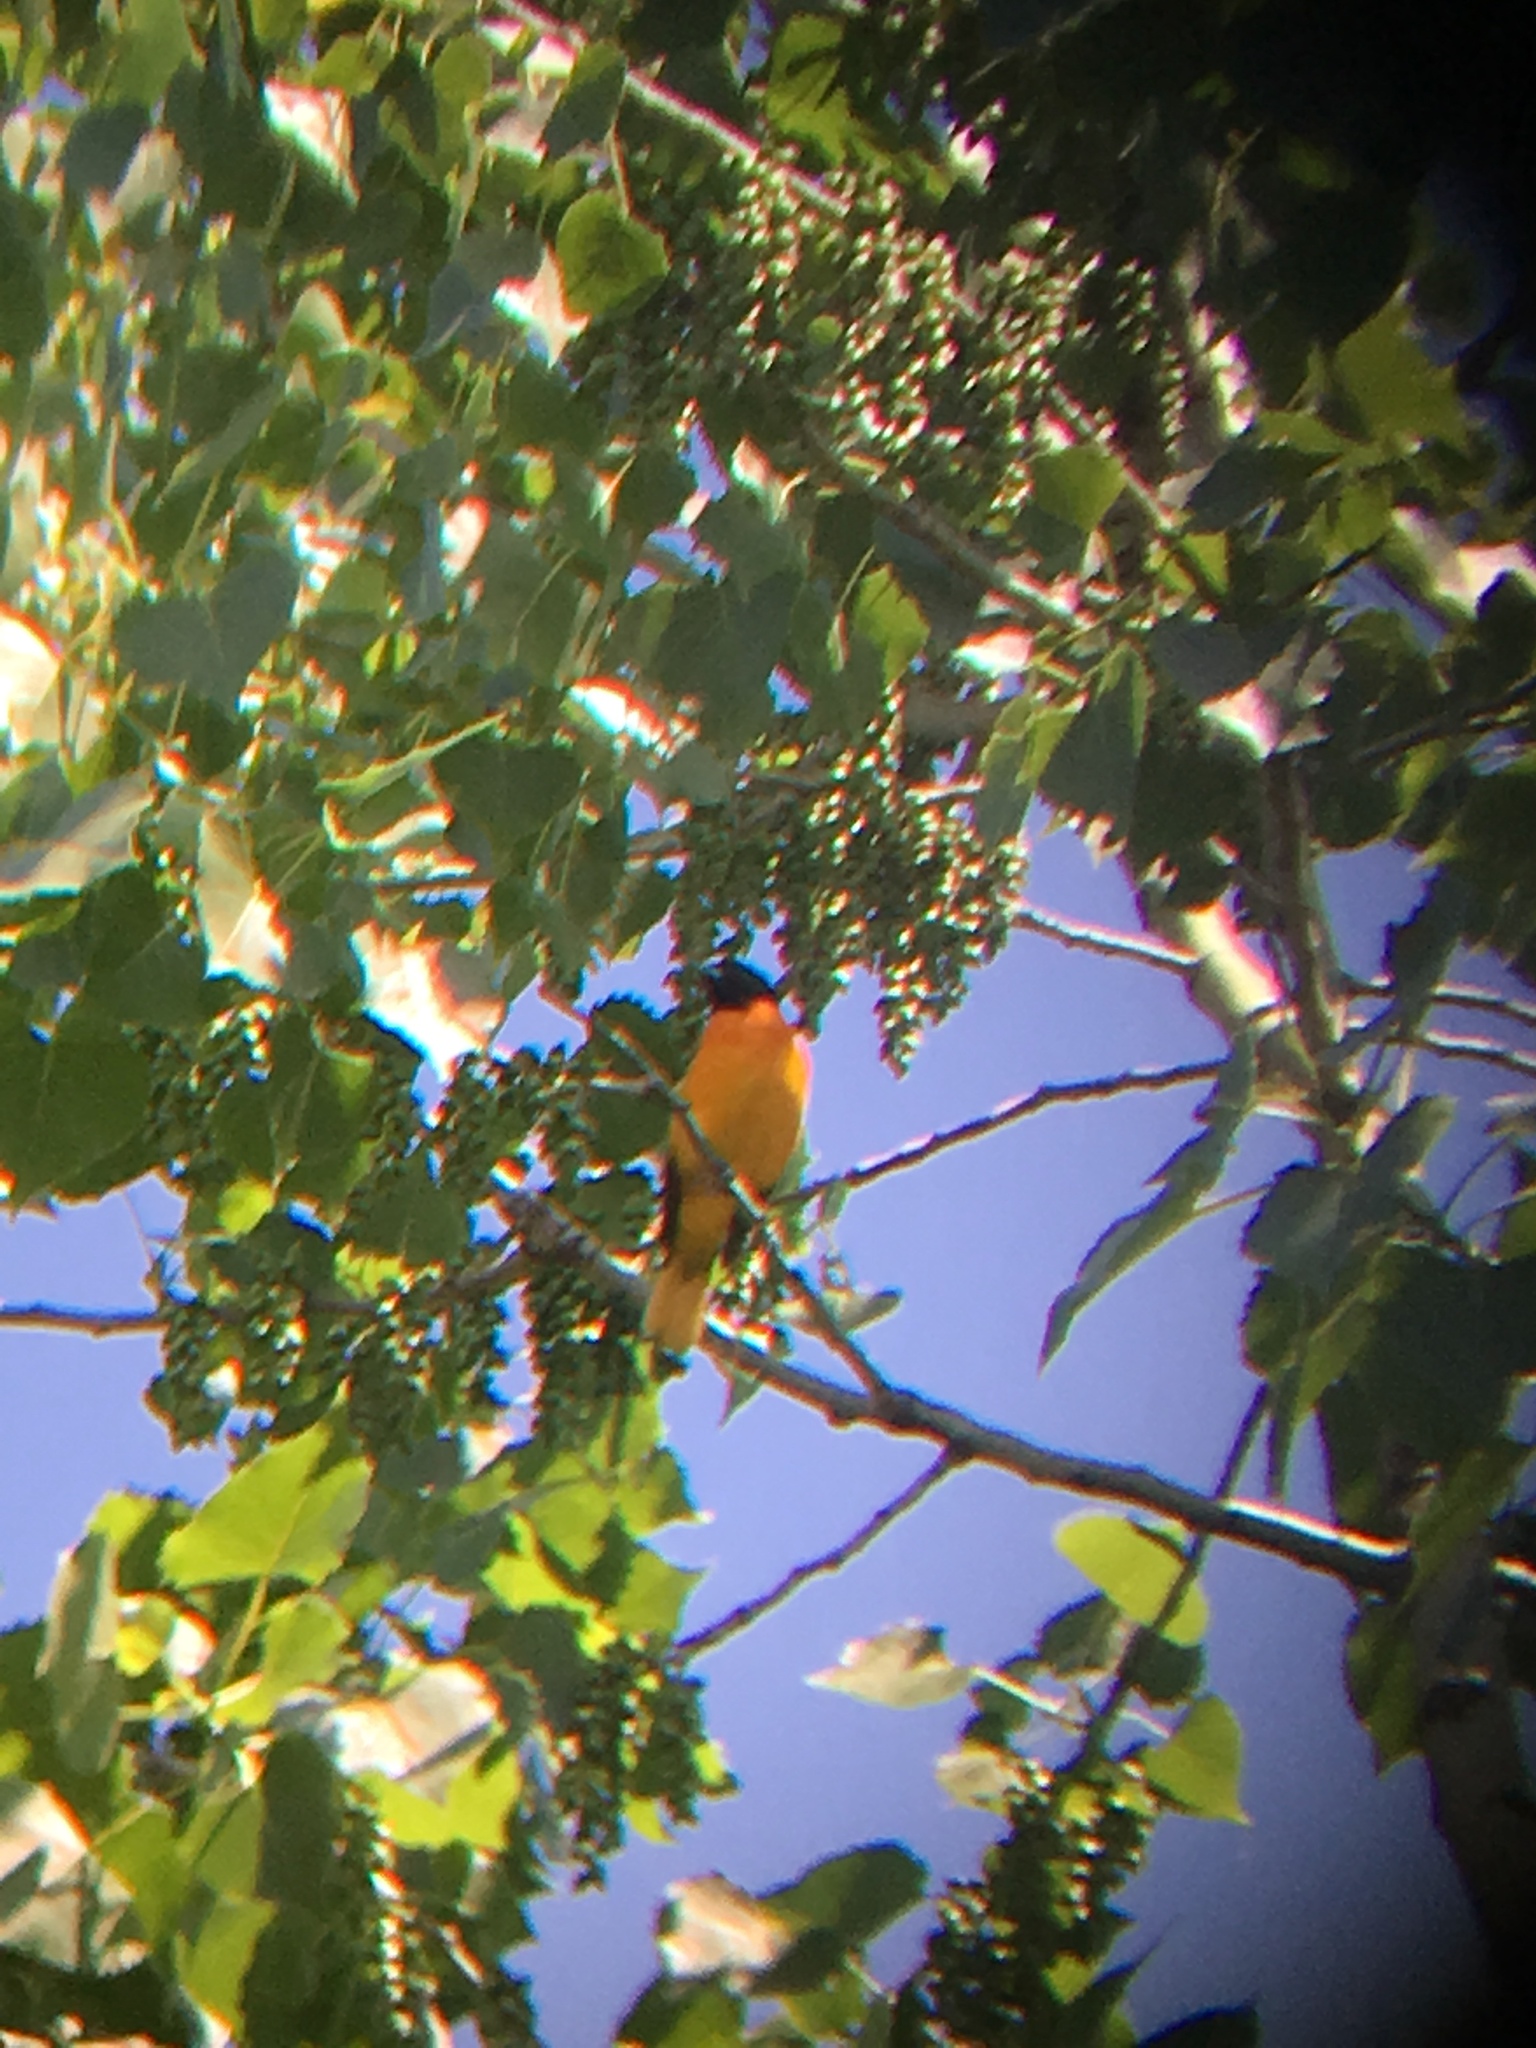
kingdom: Animalia
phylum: Chordata
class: Aves
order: Passeriformes
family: Icteridae
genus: Icterus
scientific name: Icterus galbula
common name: Baltimore oriole
